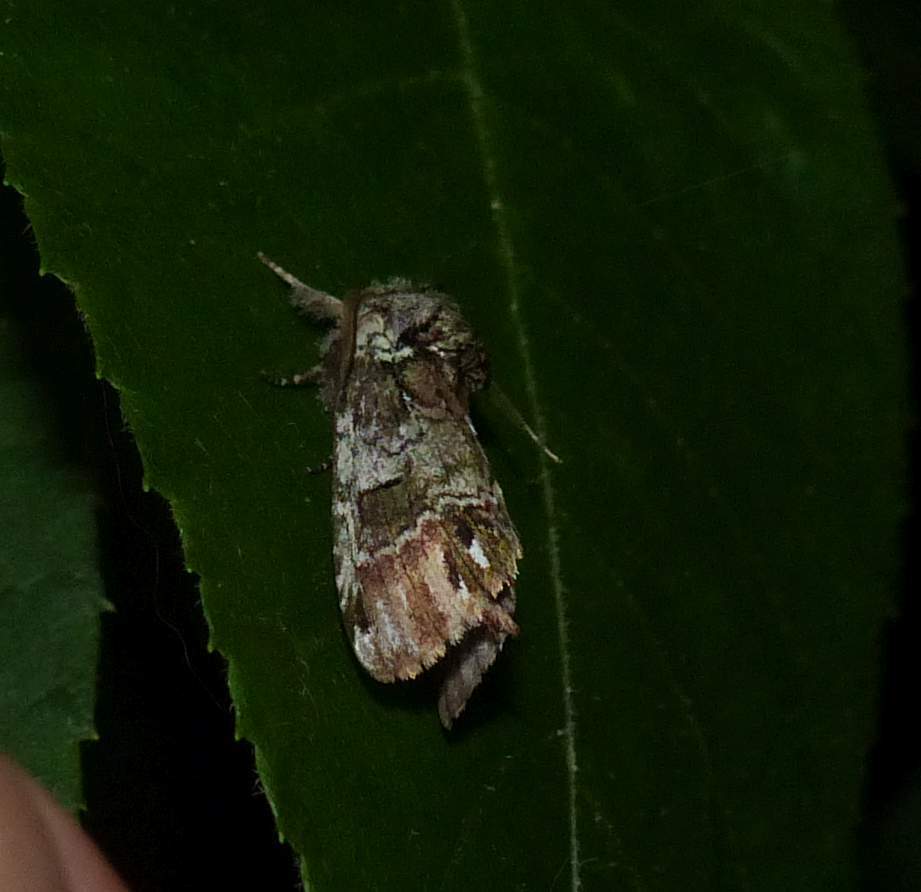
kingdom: Animalia
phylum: Arthropoda
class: Insecta
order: Lepidoptera
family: Notodontidae
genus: Schizura
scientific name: Schizura
